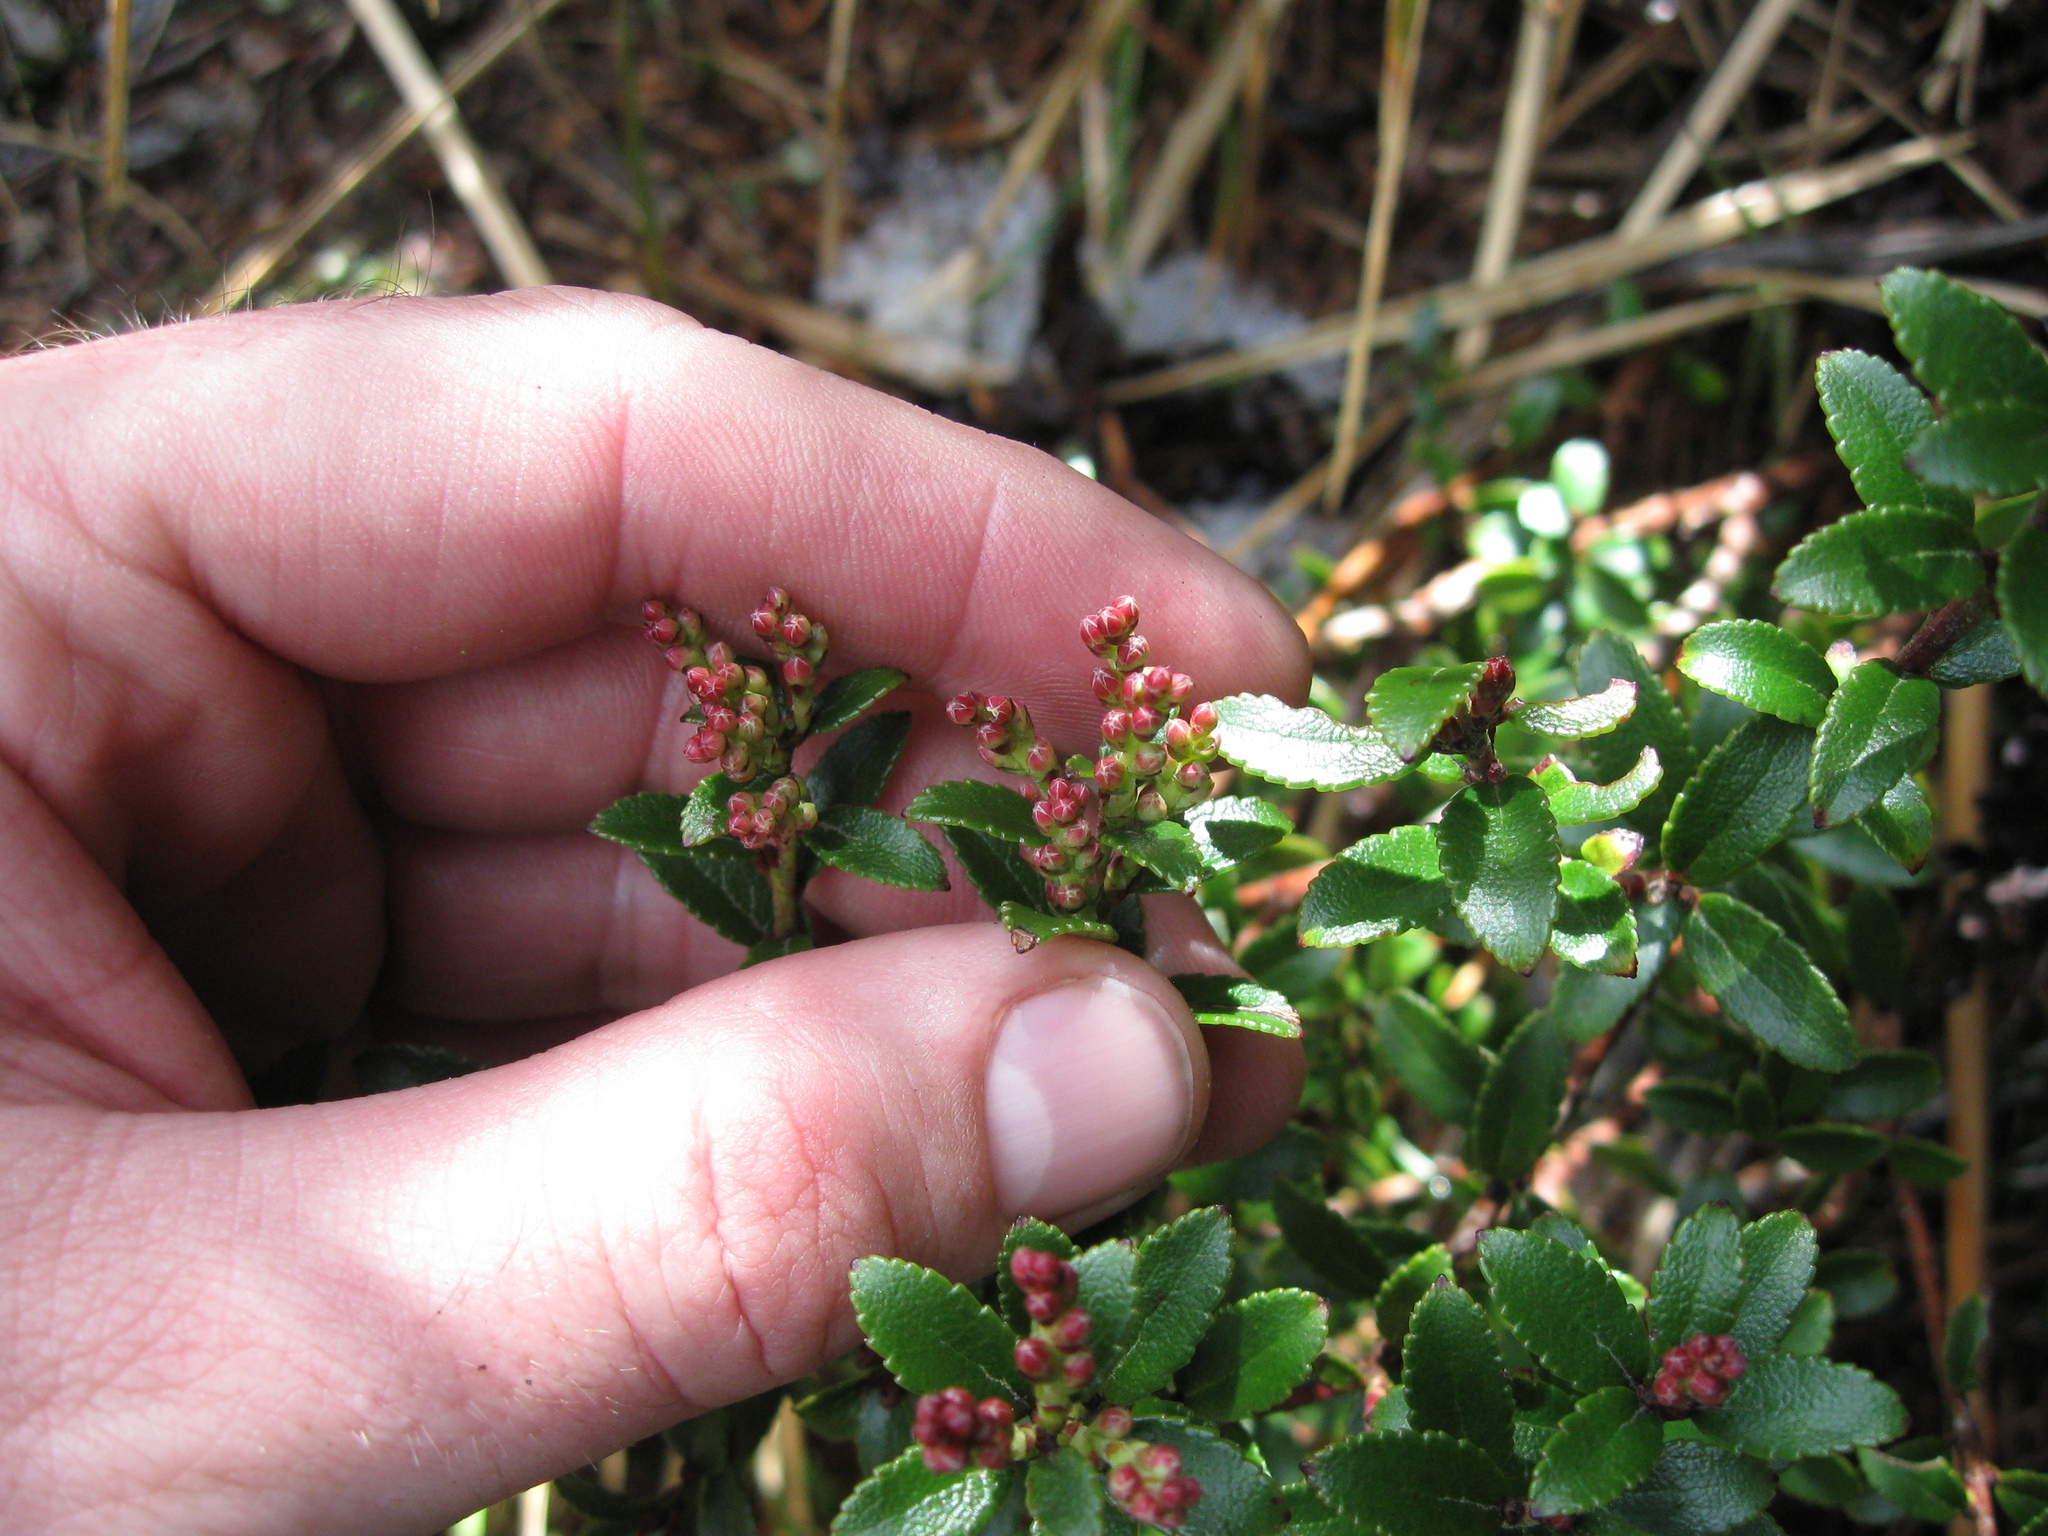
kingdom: Plantae
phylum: Tracheophyta
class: Magnoliopsida
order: Ericales
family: Ericaceae
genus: Gaultheria
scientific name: Gaultheria crassa
